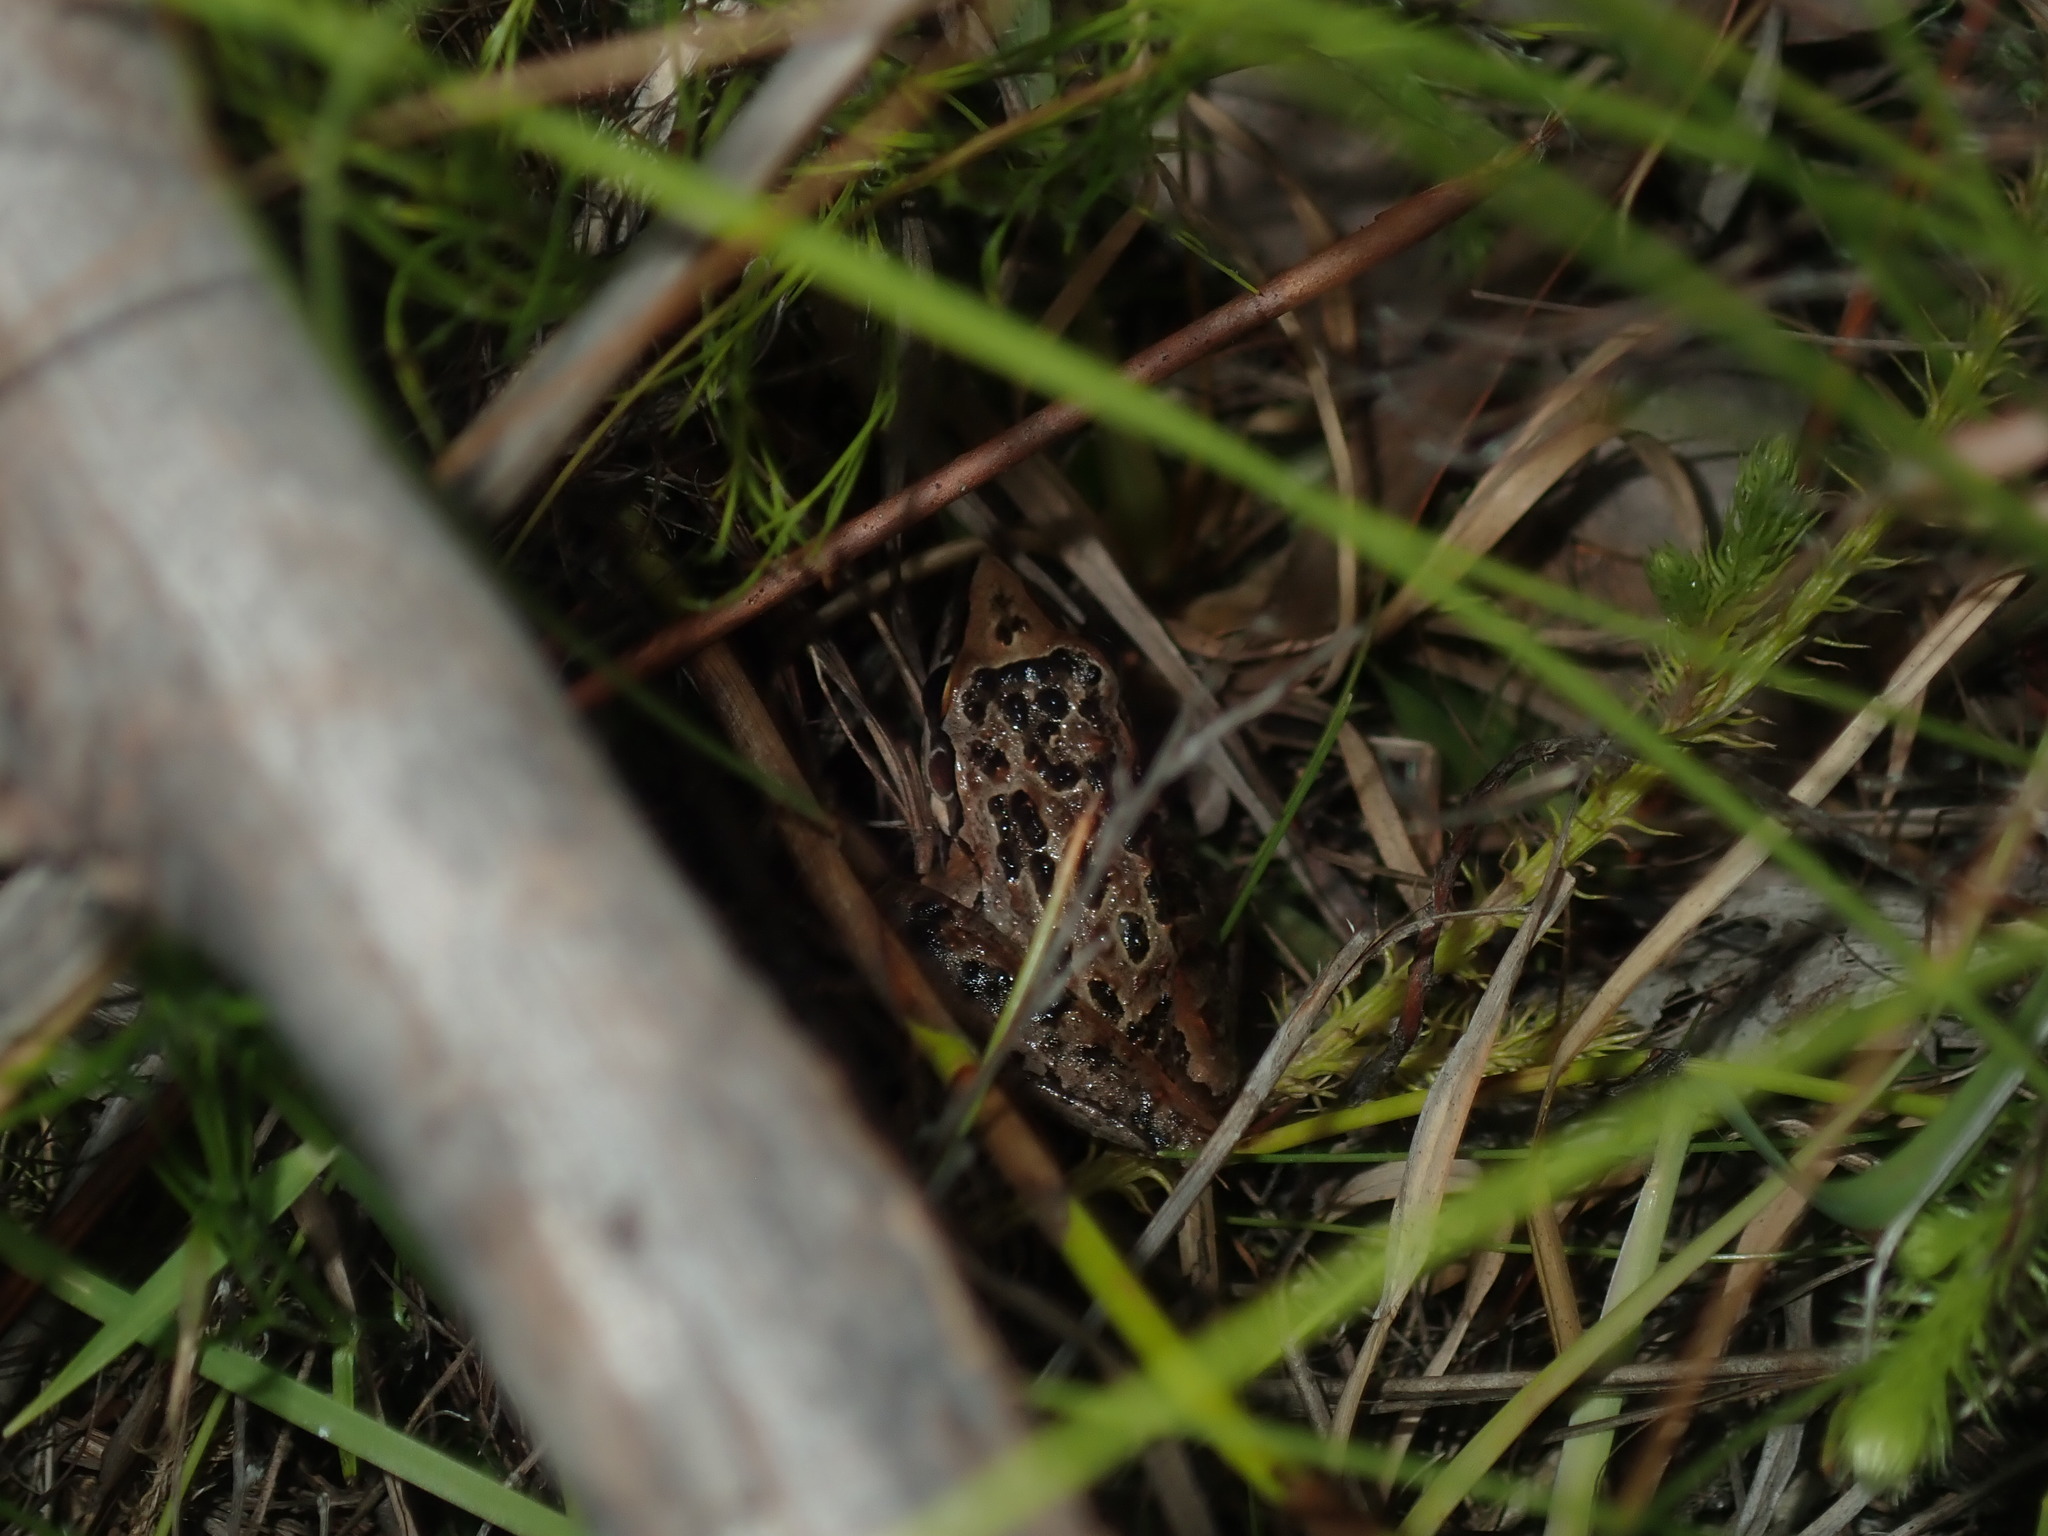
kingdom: Animalia
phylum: Chordata
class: Amphibia
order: Anura
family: Pelodryadidae
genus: Litoria
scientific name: Litoria freycineti
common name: Freycinet’s frog
